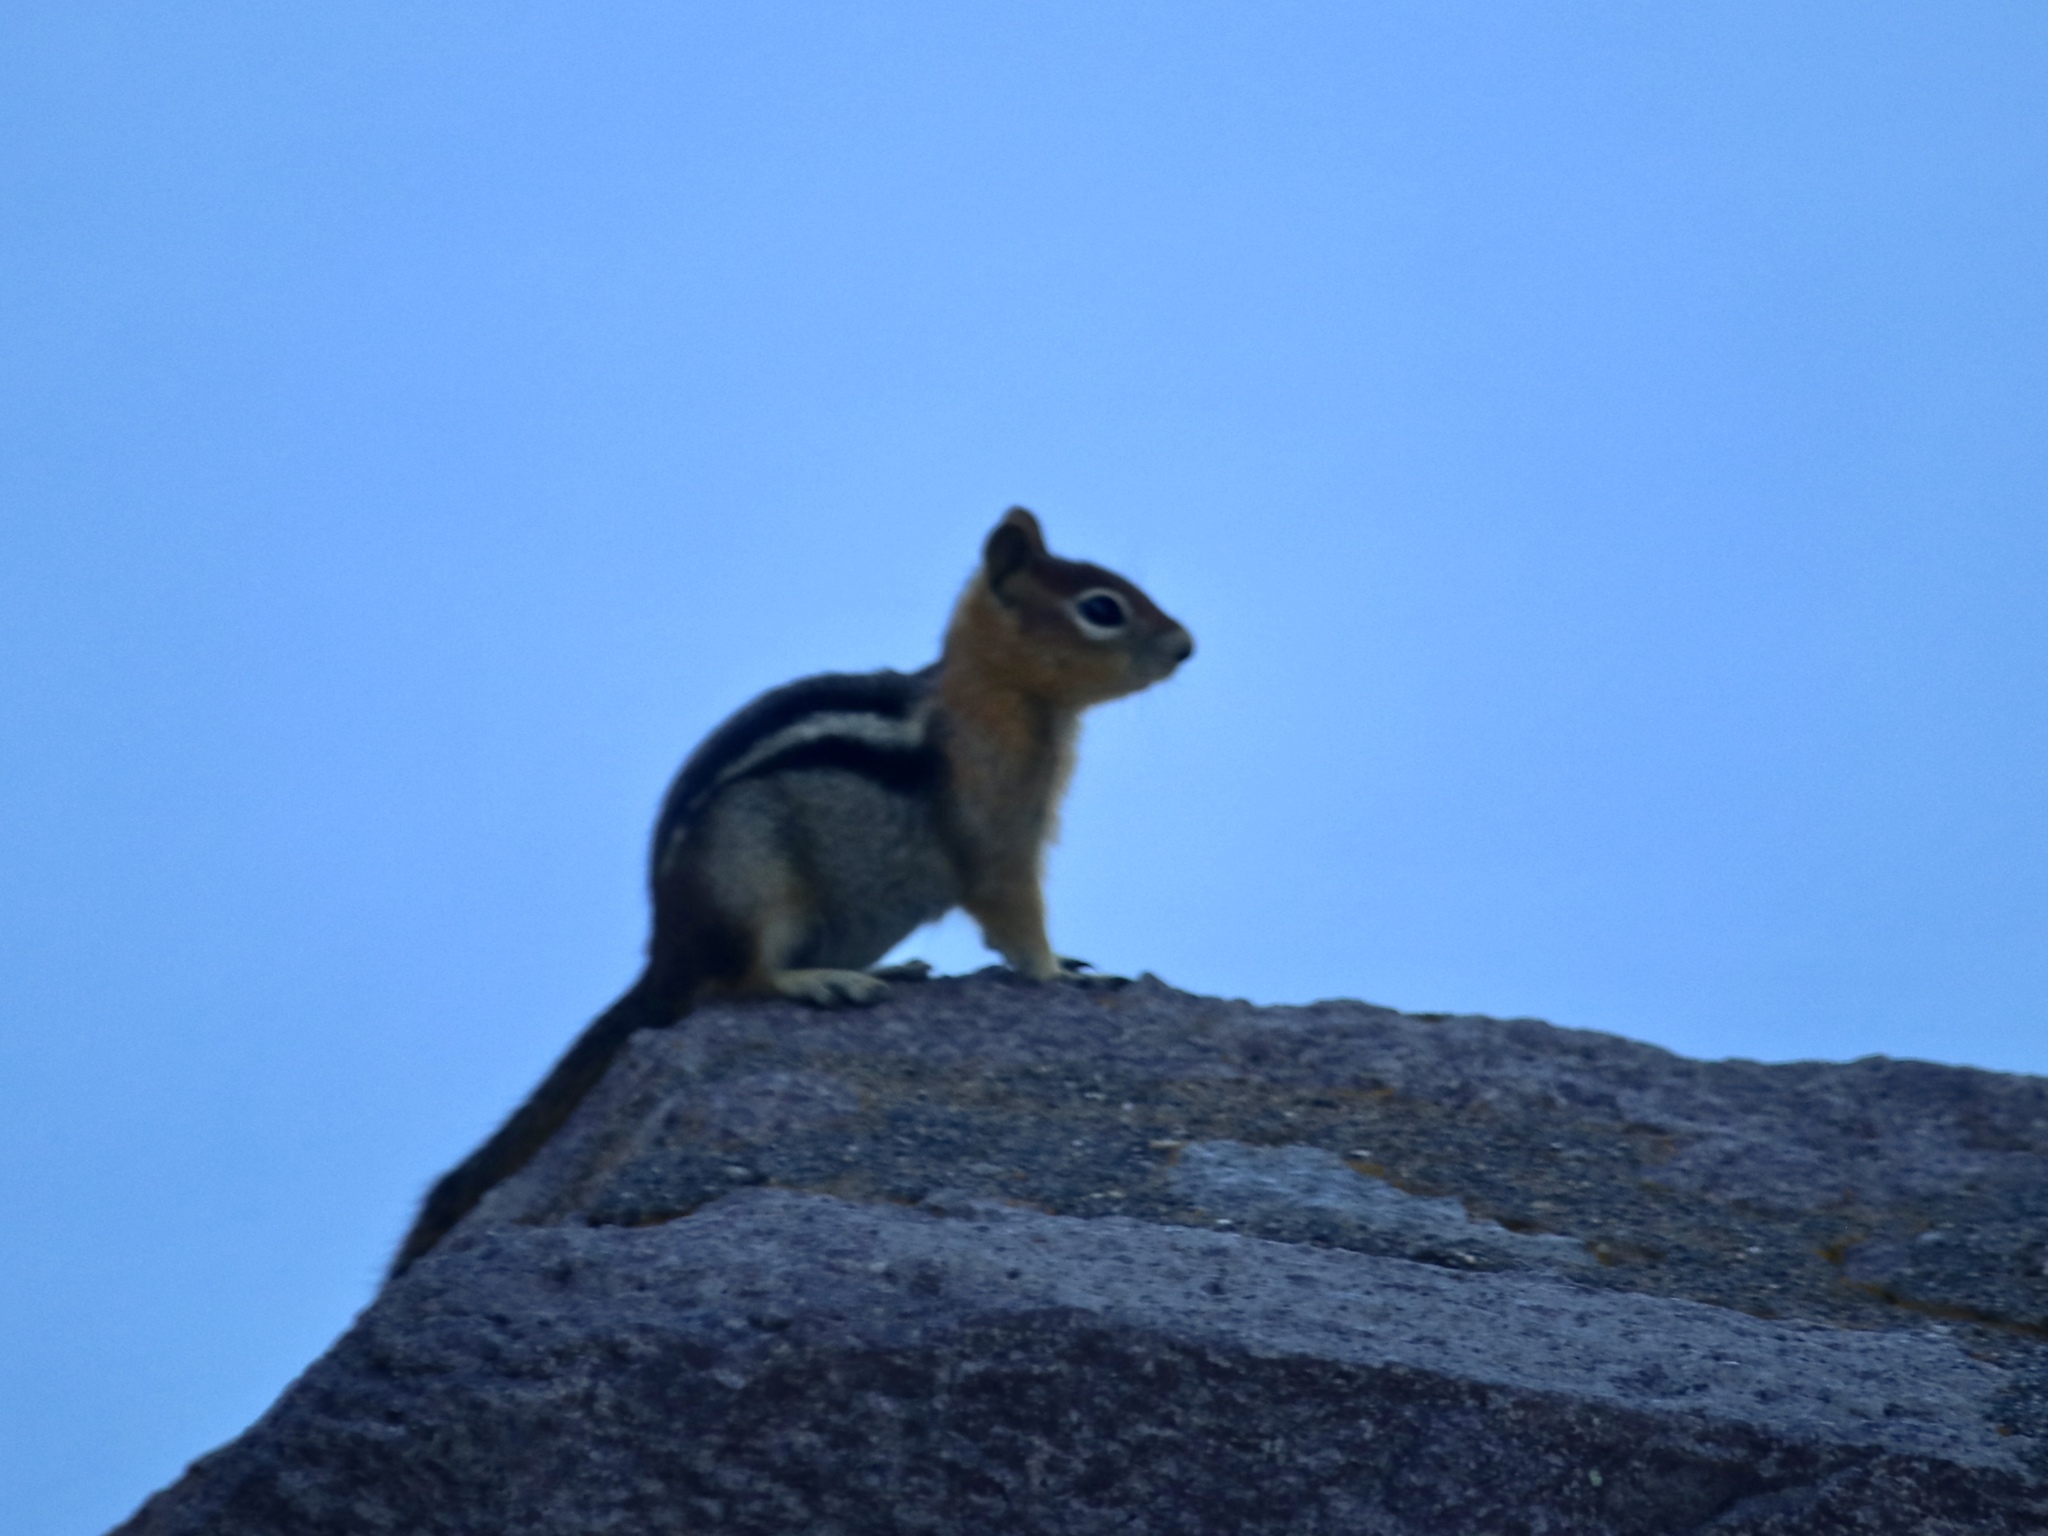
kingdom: Animalia
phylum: Chordata
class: Mammalia
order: Rodentia
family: Sciuridae
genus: Callospermophilus
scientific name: Callospermophilus lateralis
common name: Golden-mantled ground squirrel
